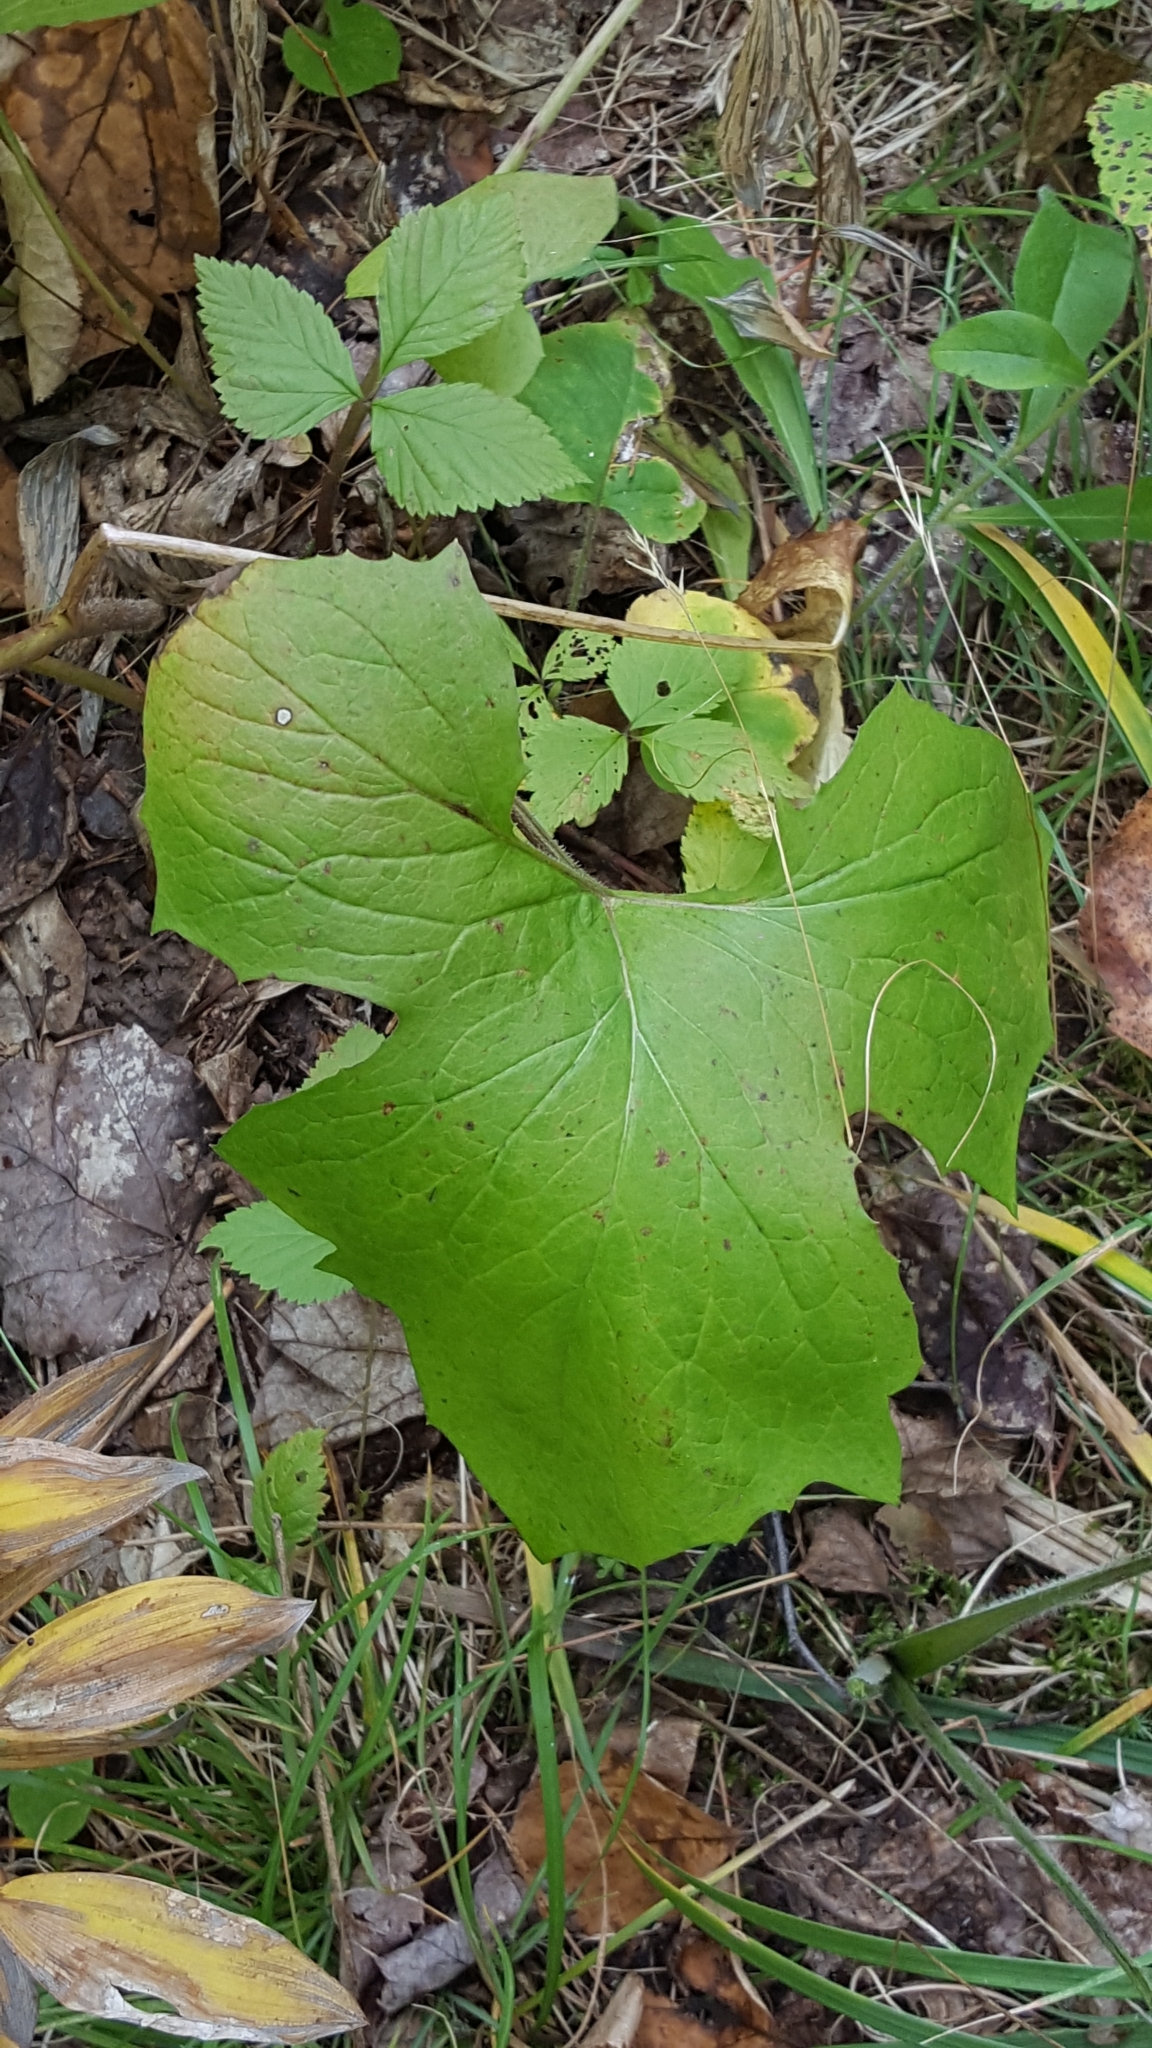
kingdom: Plantae
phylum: Tracheophyta
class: Magnoliopsida
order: Asterales
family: Asteraceae
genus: Nabalus
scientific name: Nabalus albus
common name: White rattlesnakeroot
